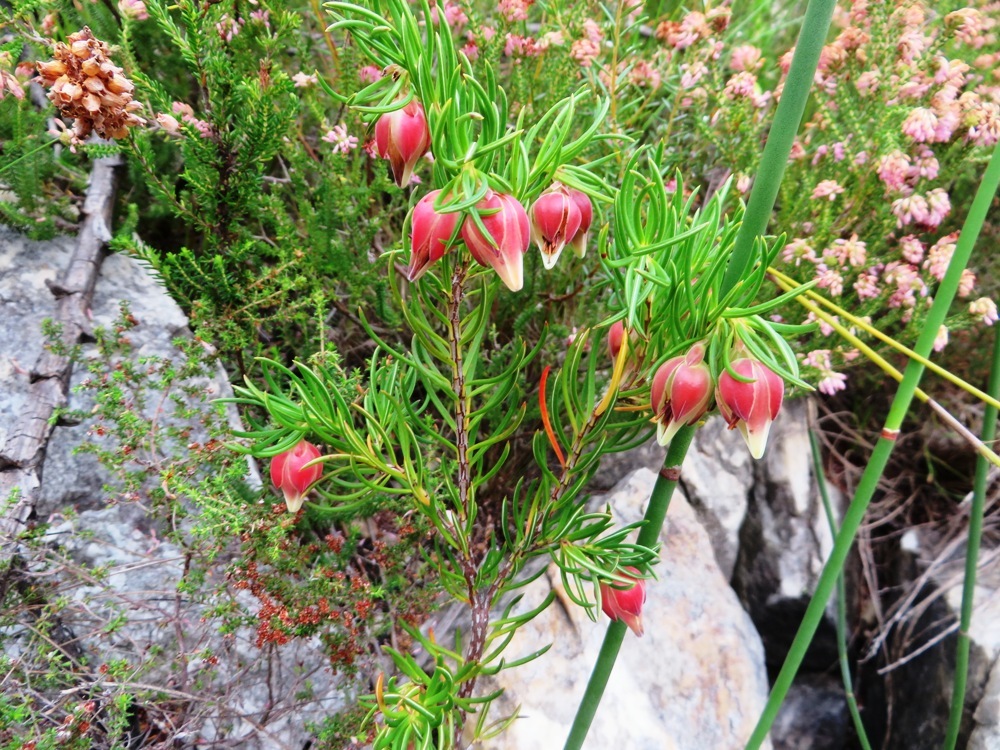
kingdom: Plantae
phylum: Tracheophyta
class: Magnoliopsida
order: Ericales
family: Ericaceae
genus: Erica
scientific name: Erica lanuginosa
